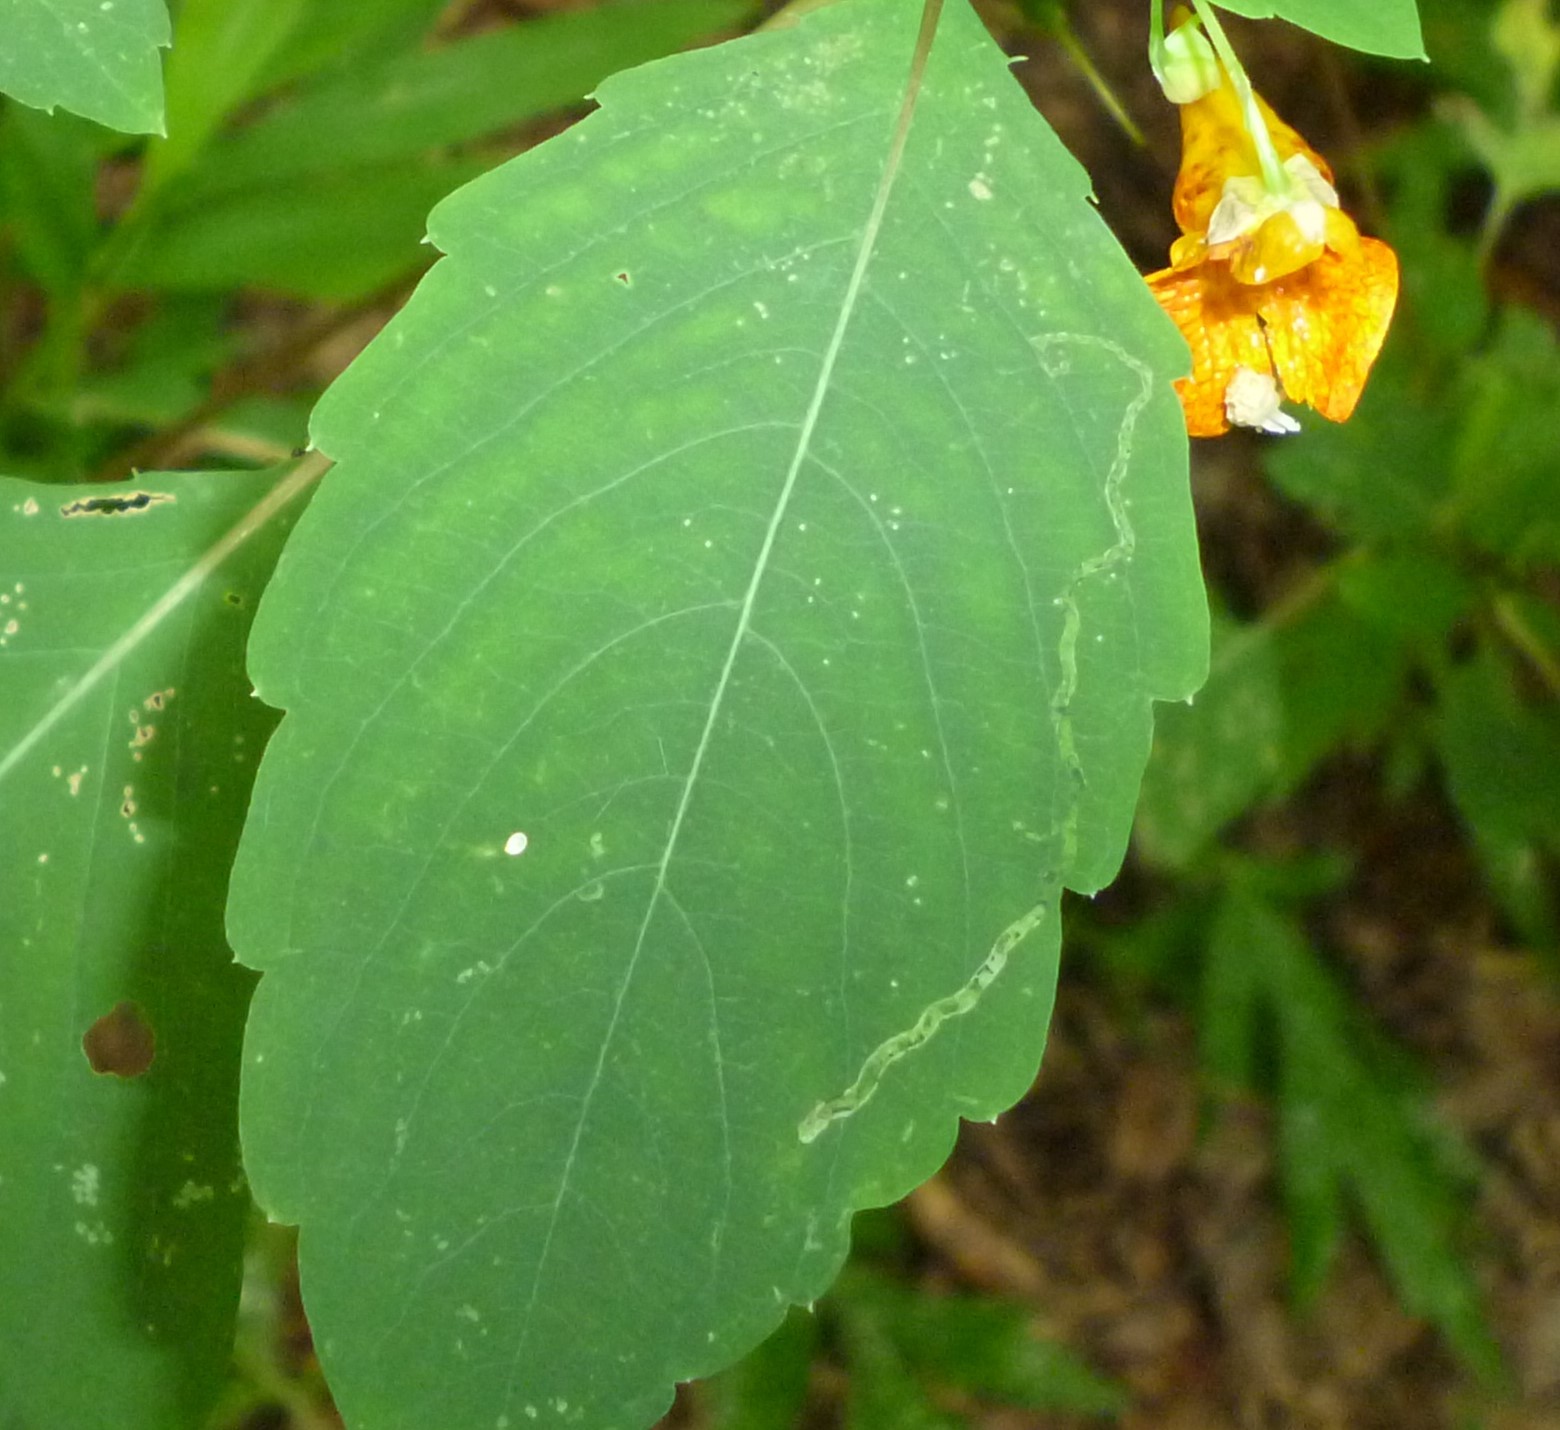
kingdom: Animalia
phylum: Arthropoda
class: Insecta
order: Diptera
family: Agromyzidae
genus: Phytoliriomyza
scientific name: Phytoliriomyza melampyga
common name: Jewelweed leaf-miner fly
